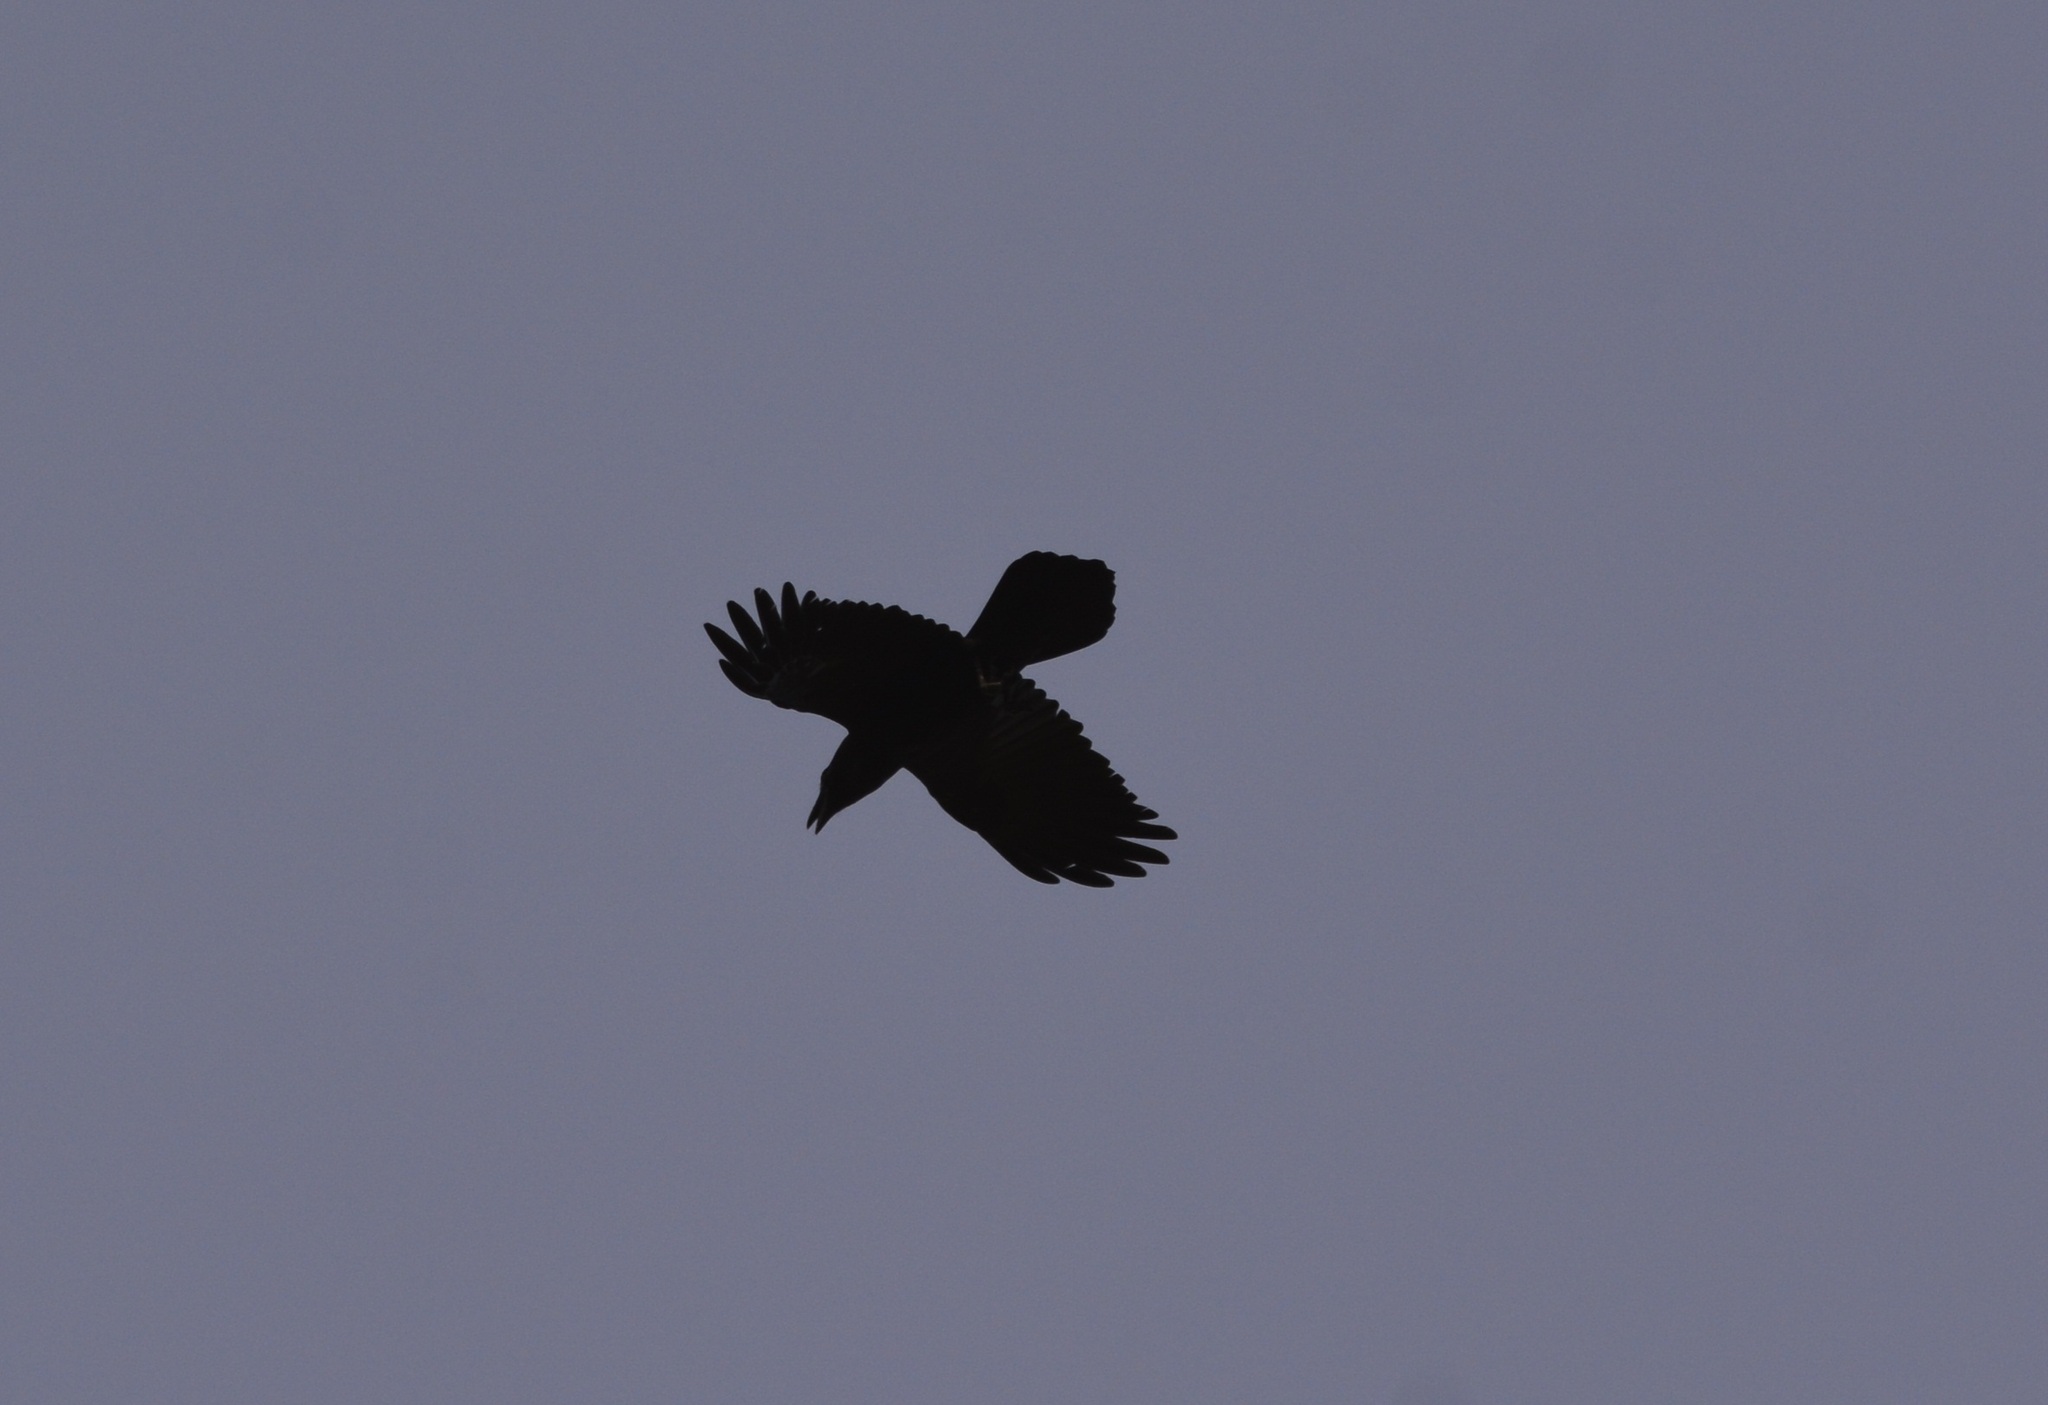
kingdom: Animalia
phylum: Chordata
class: Aves
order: Passeriformes
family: Corvidae
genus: Corvus
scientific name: Corvus corax
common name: Common raven
